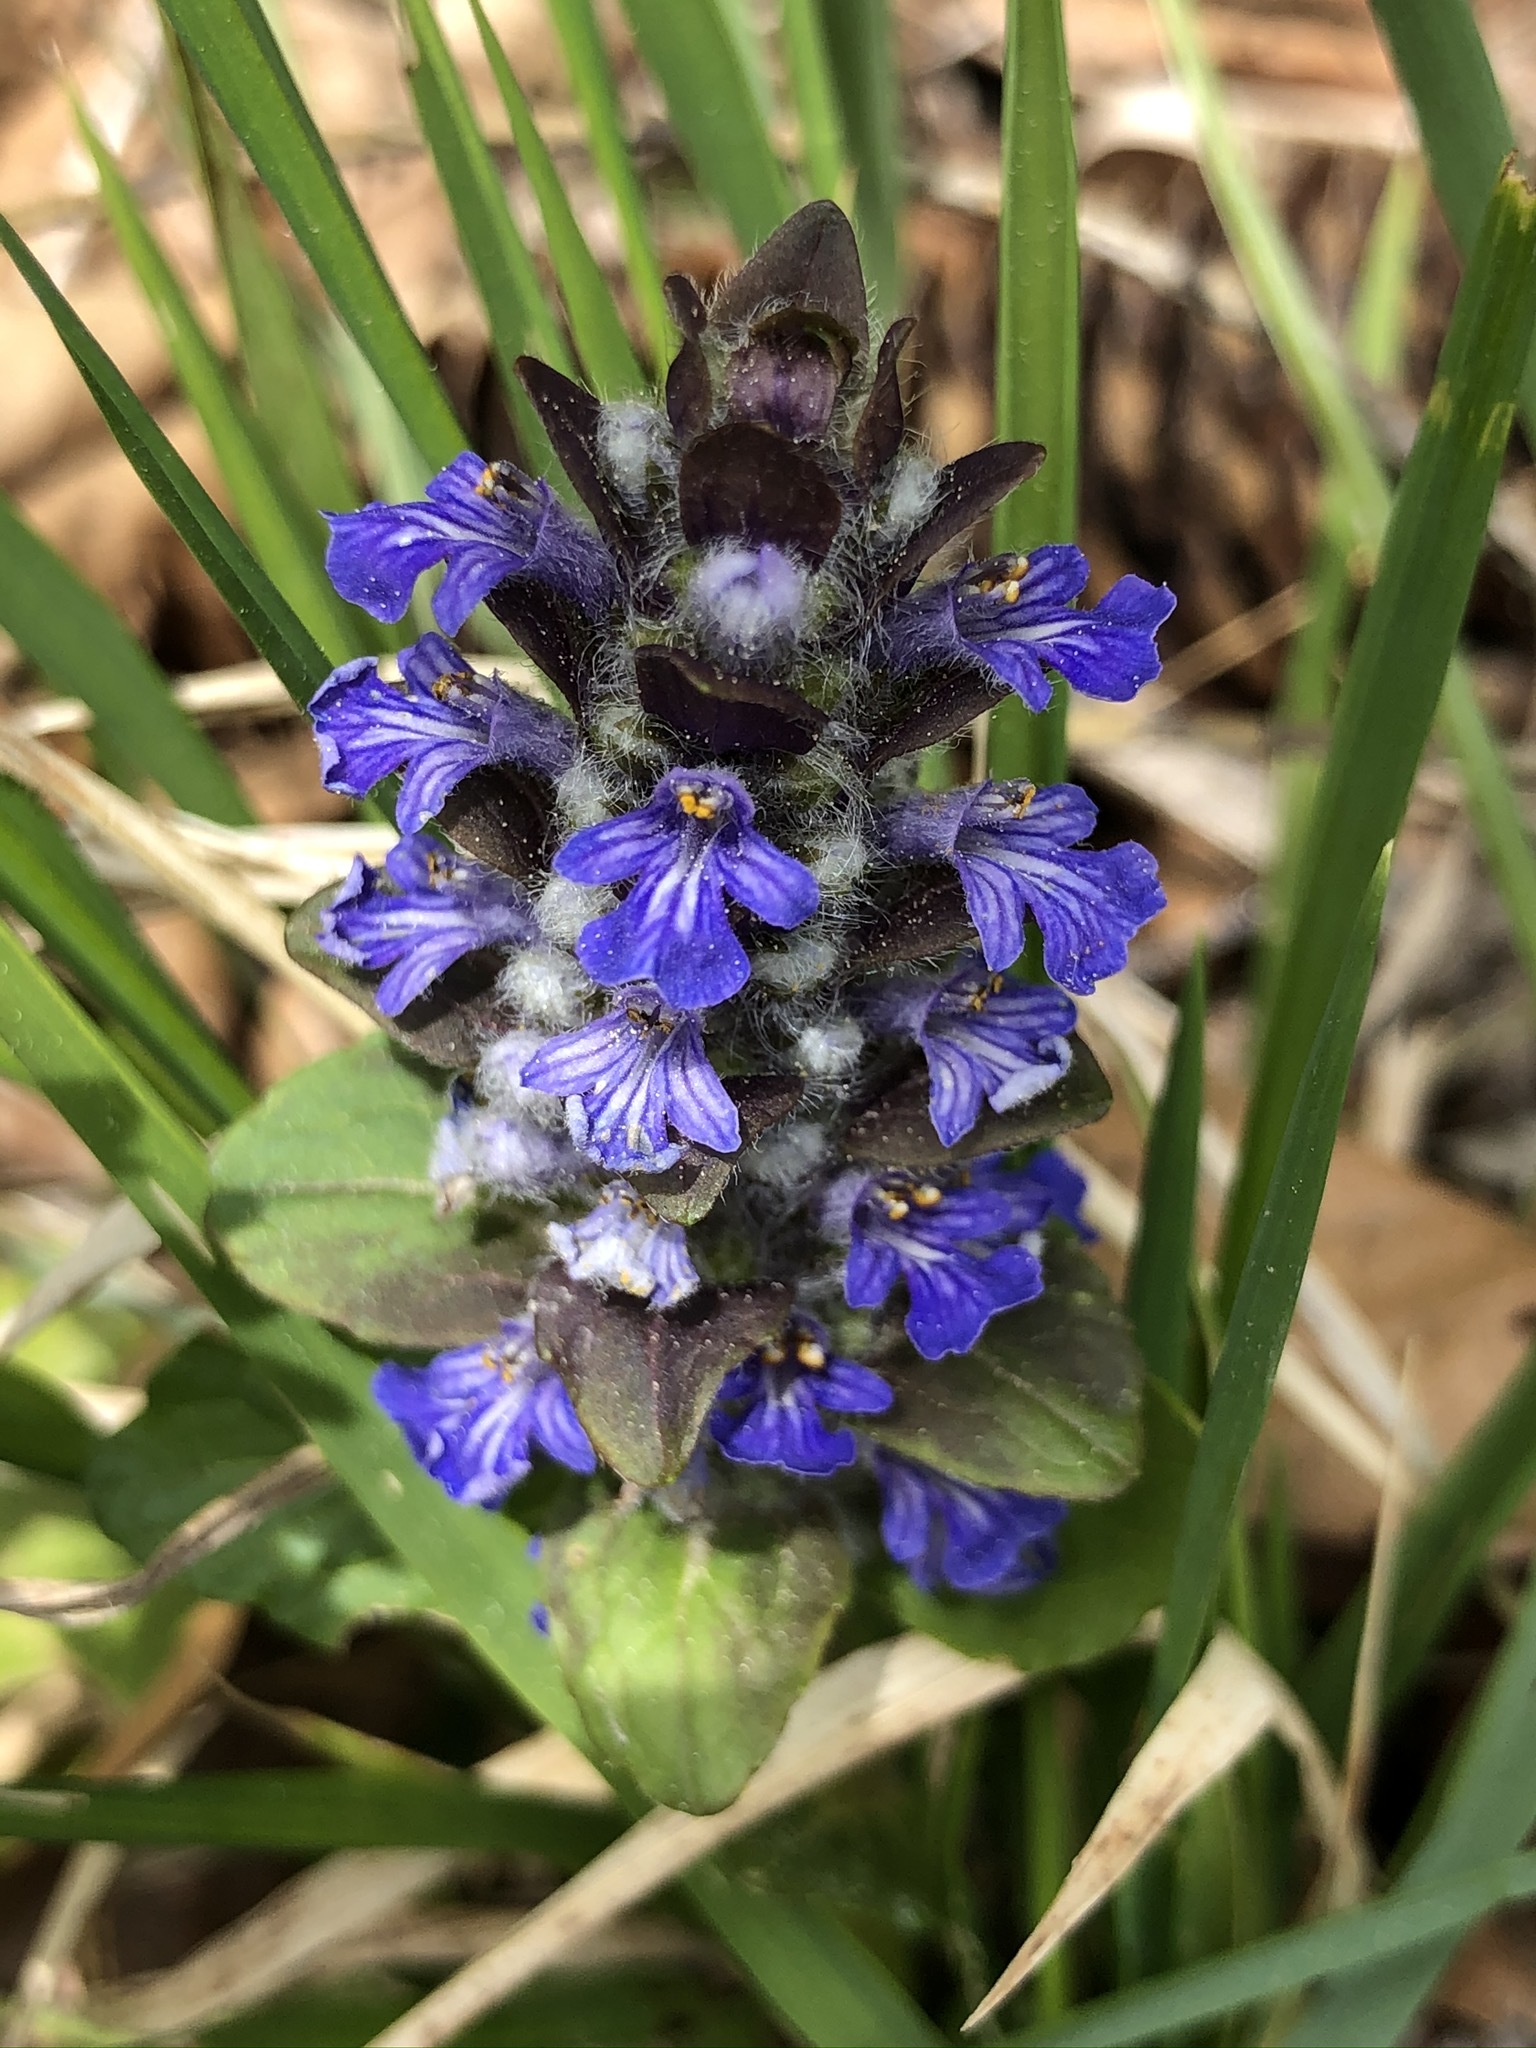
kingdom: Plantae
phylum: Tracheophyta
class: Magnoliopsida
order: Lamiales
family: Lamiaceae
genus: Ajuga
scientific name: Ajuga reptans
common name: Bugle
